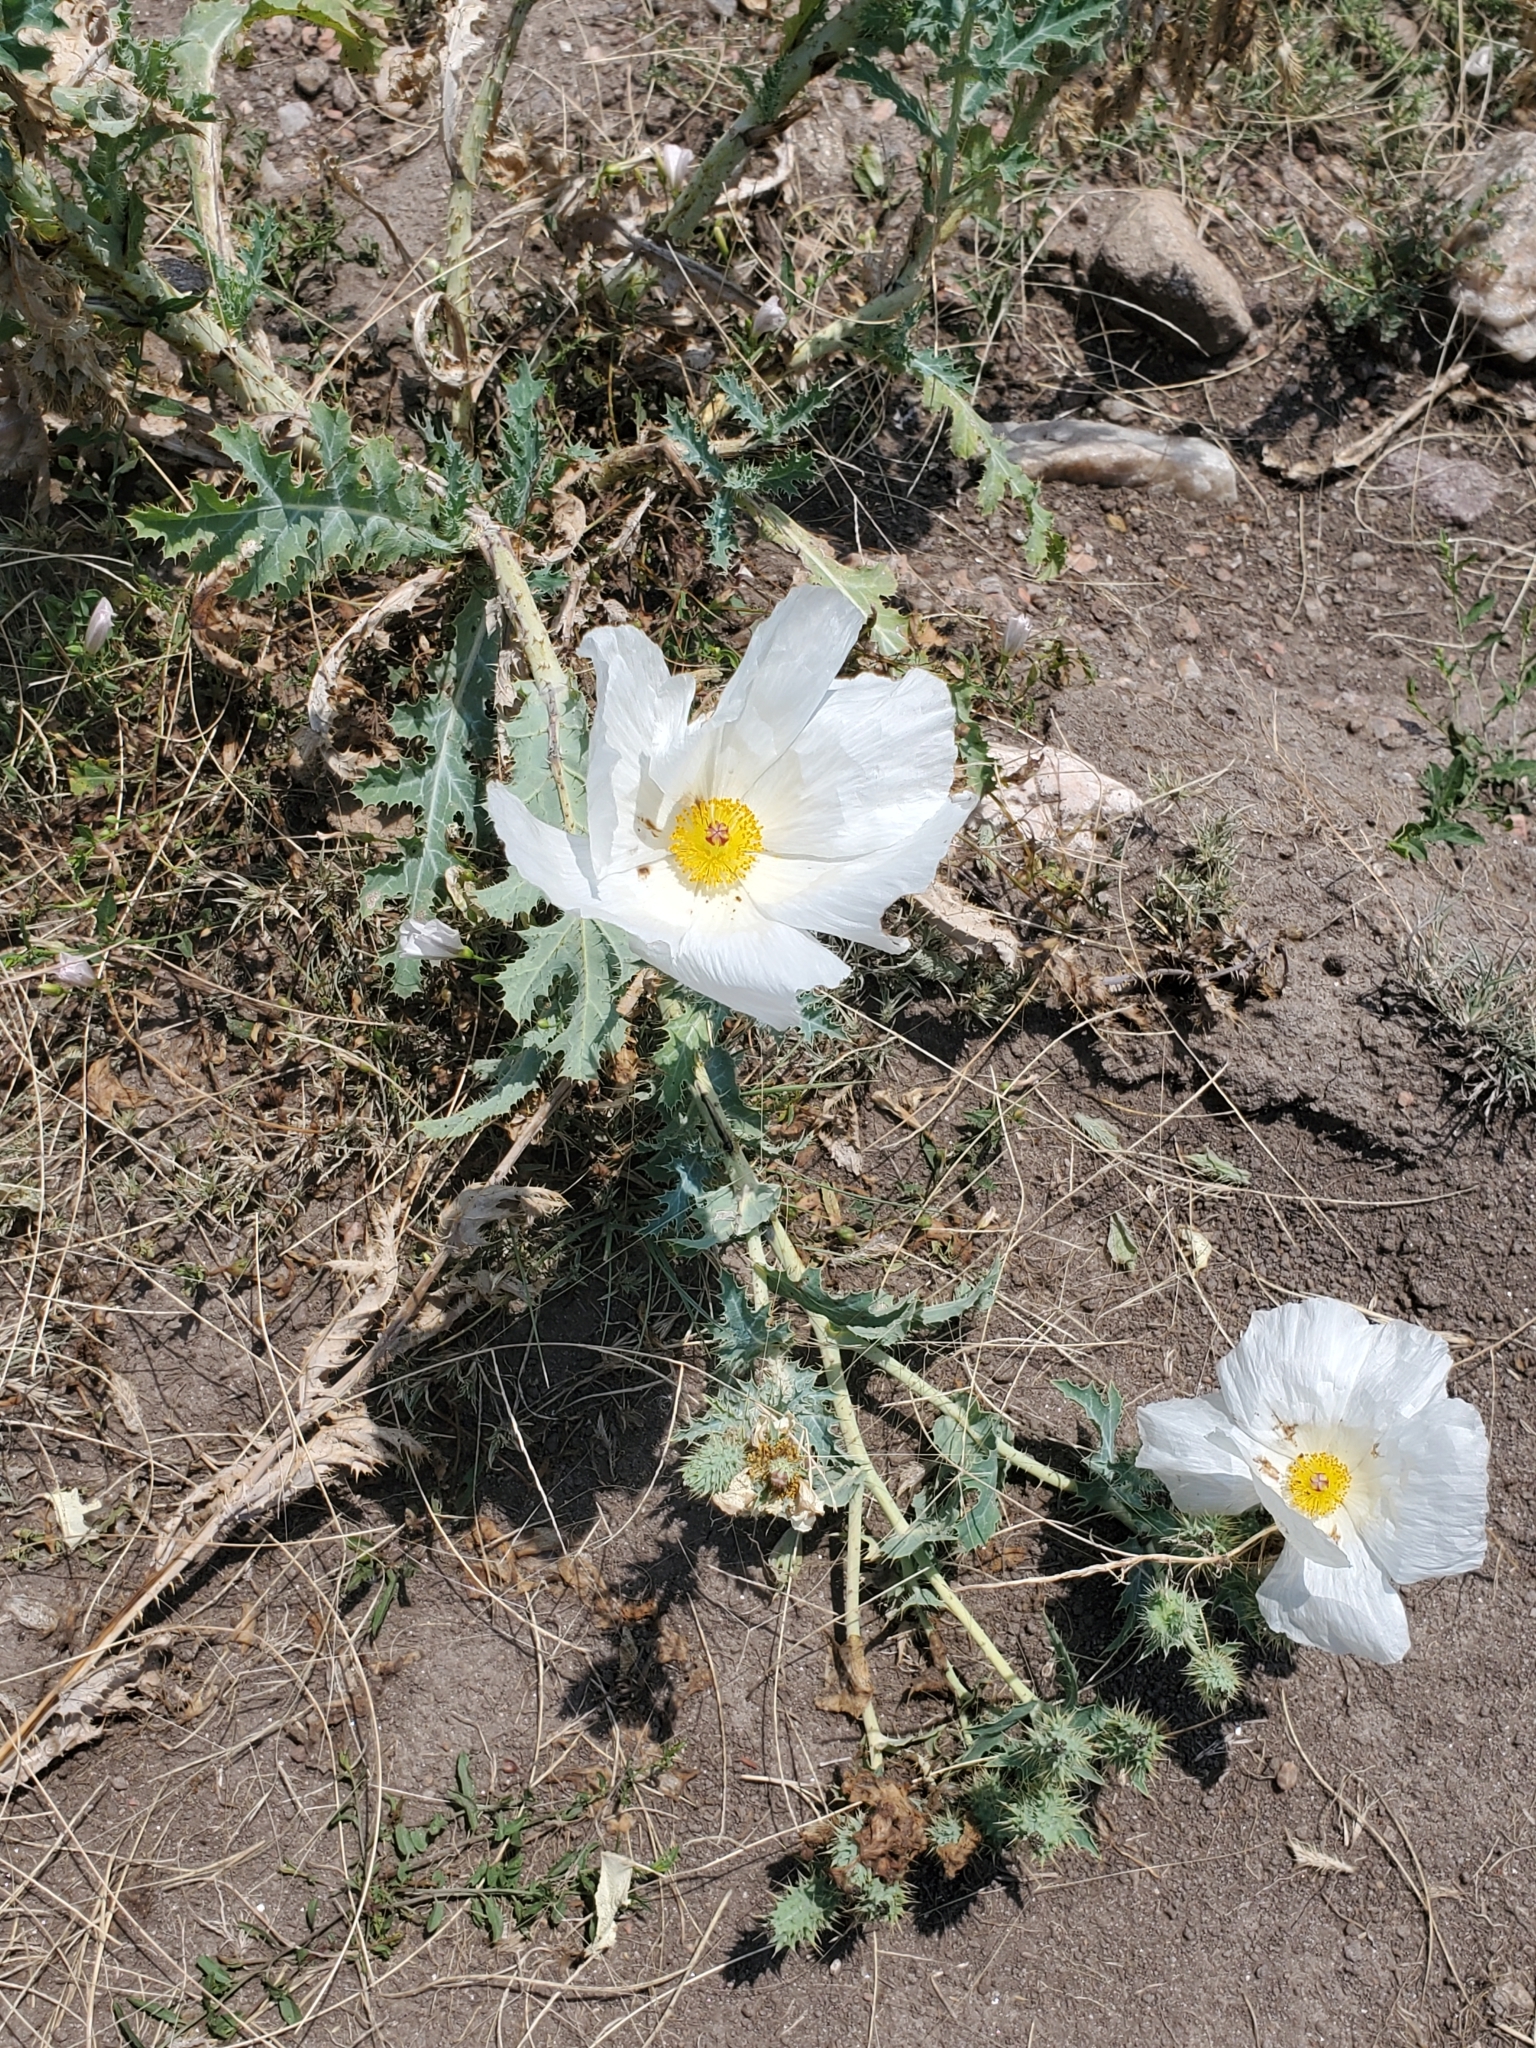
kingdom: Plantae
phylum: Tracheophyta
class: Magnoliopsida
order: Ranunculales
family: Papaveraceae
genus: Argemone
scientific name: Argemone polyanthemos
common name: Plains prickly-poppy
